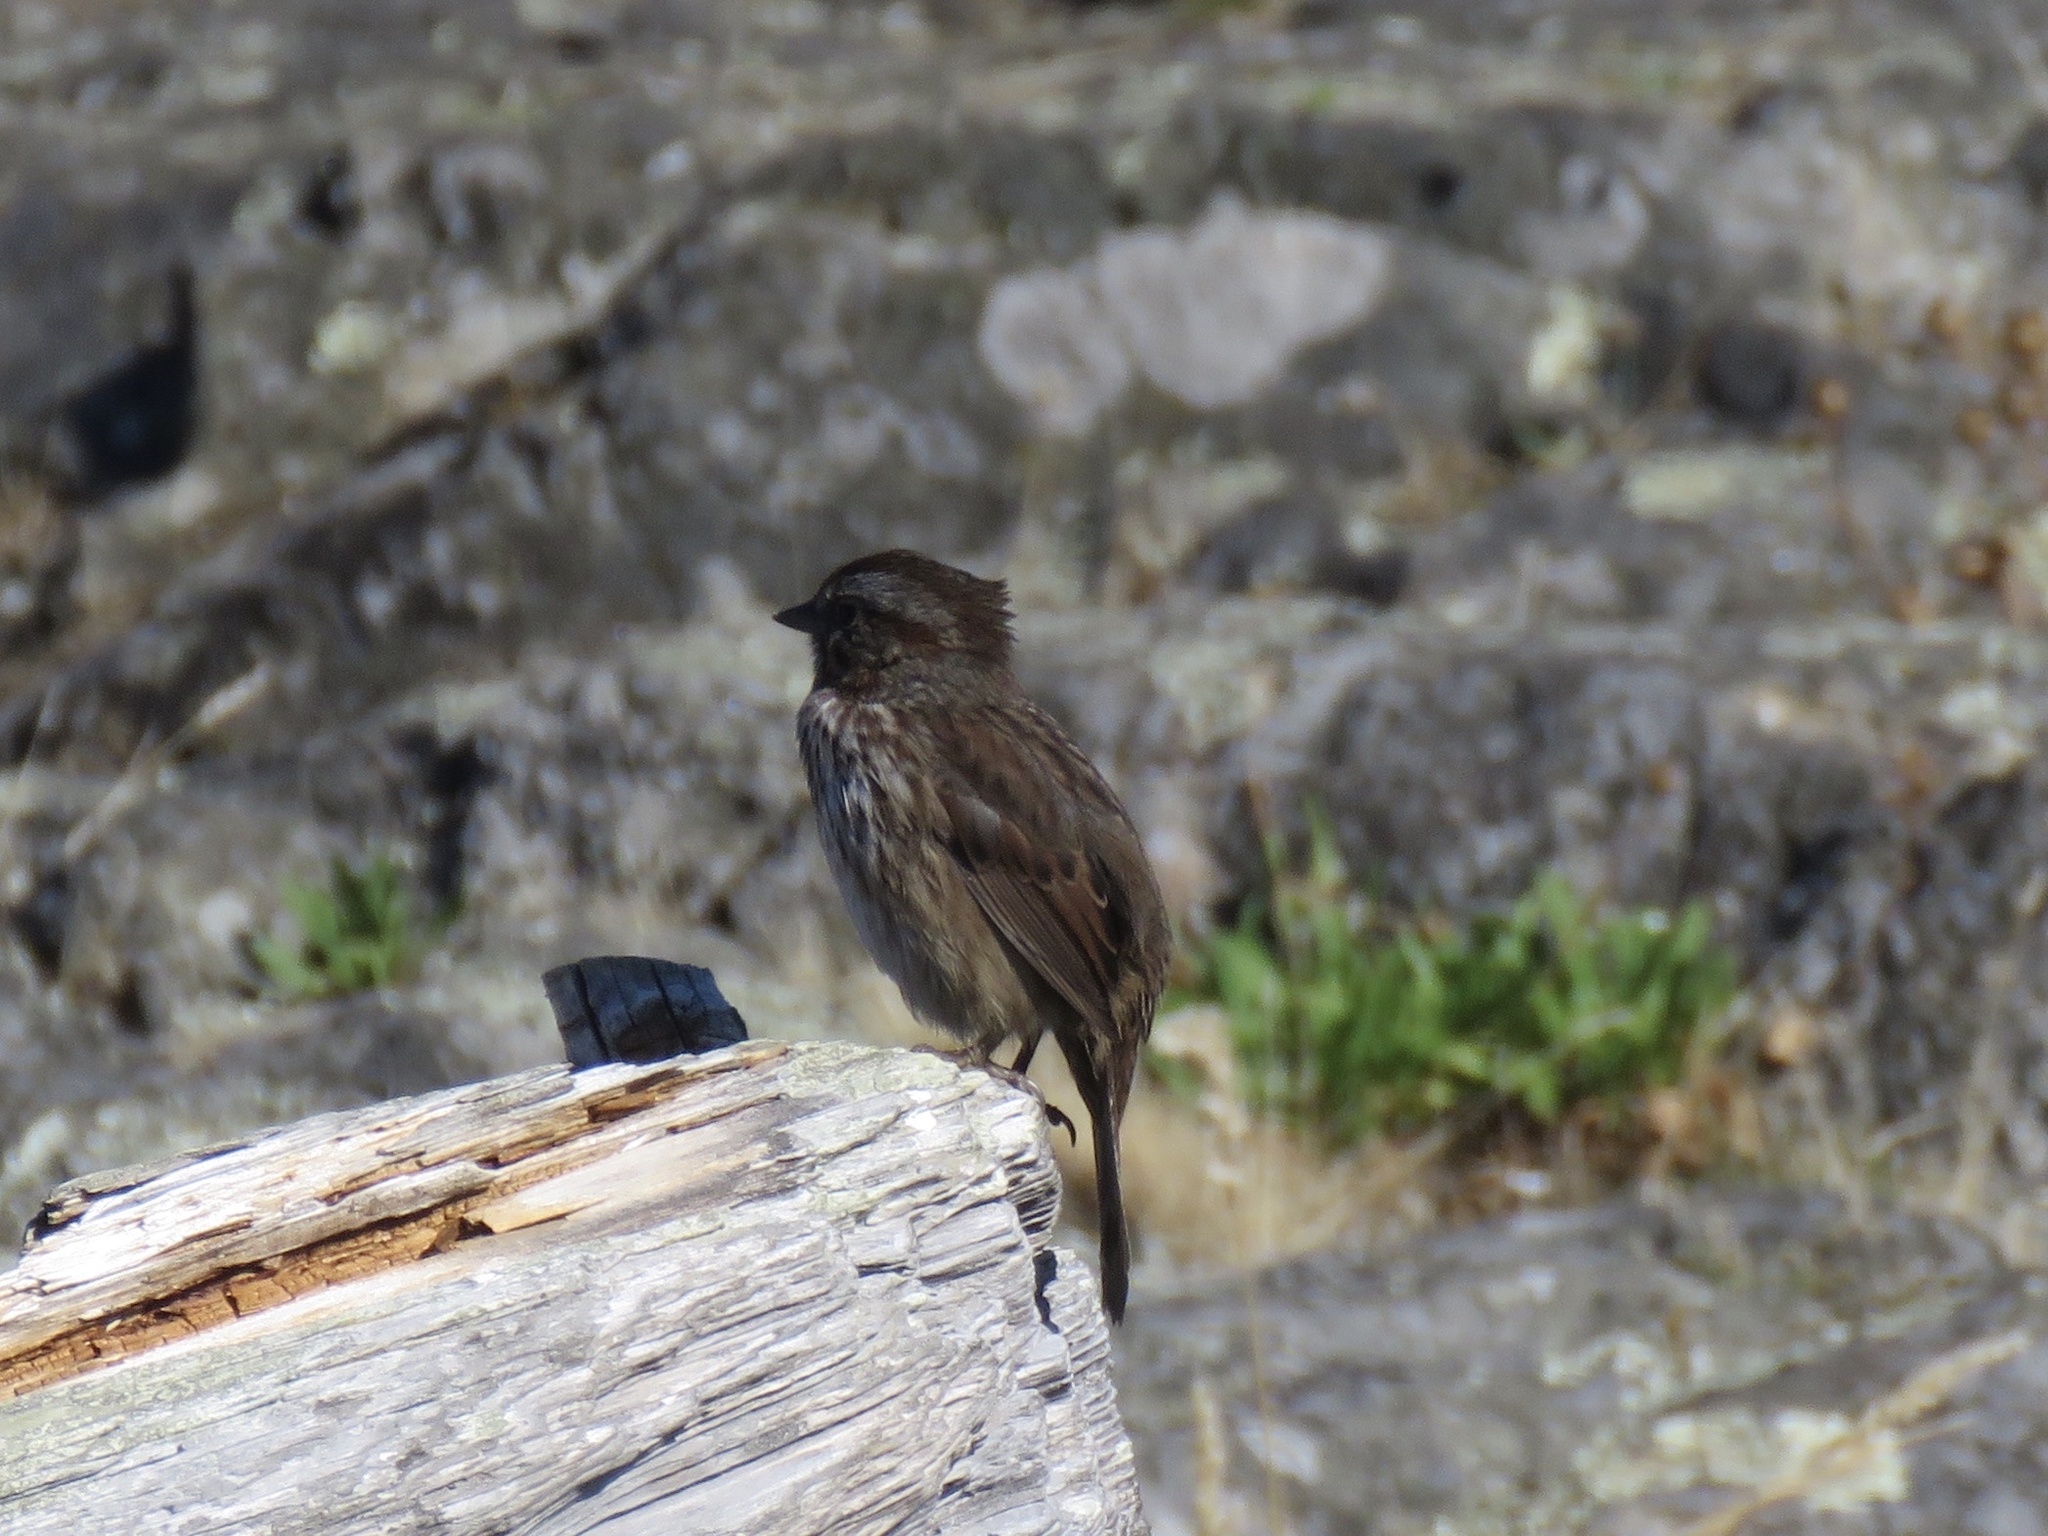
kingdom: Animalia
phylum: Chordata
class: Aves
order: Passeriformes
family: Passerellidae
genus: Melospiza
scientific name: Melospiza melodia
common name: Song sparrow
